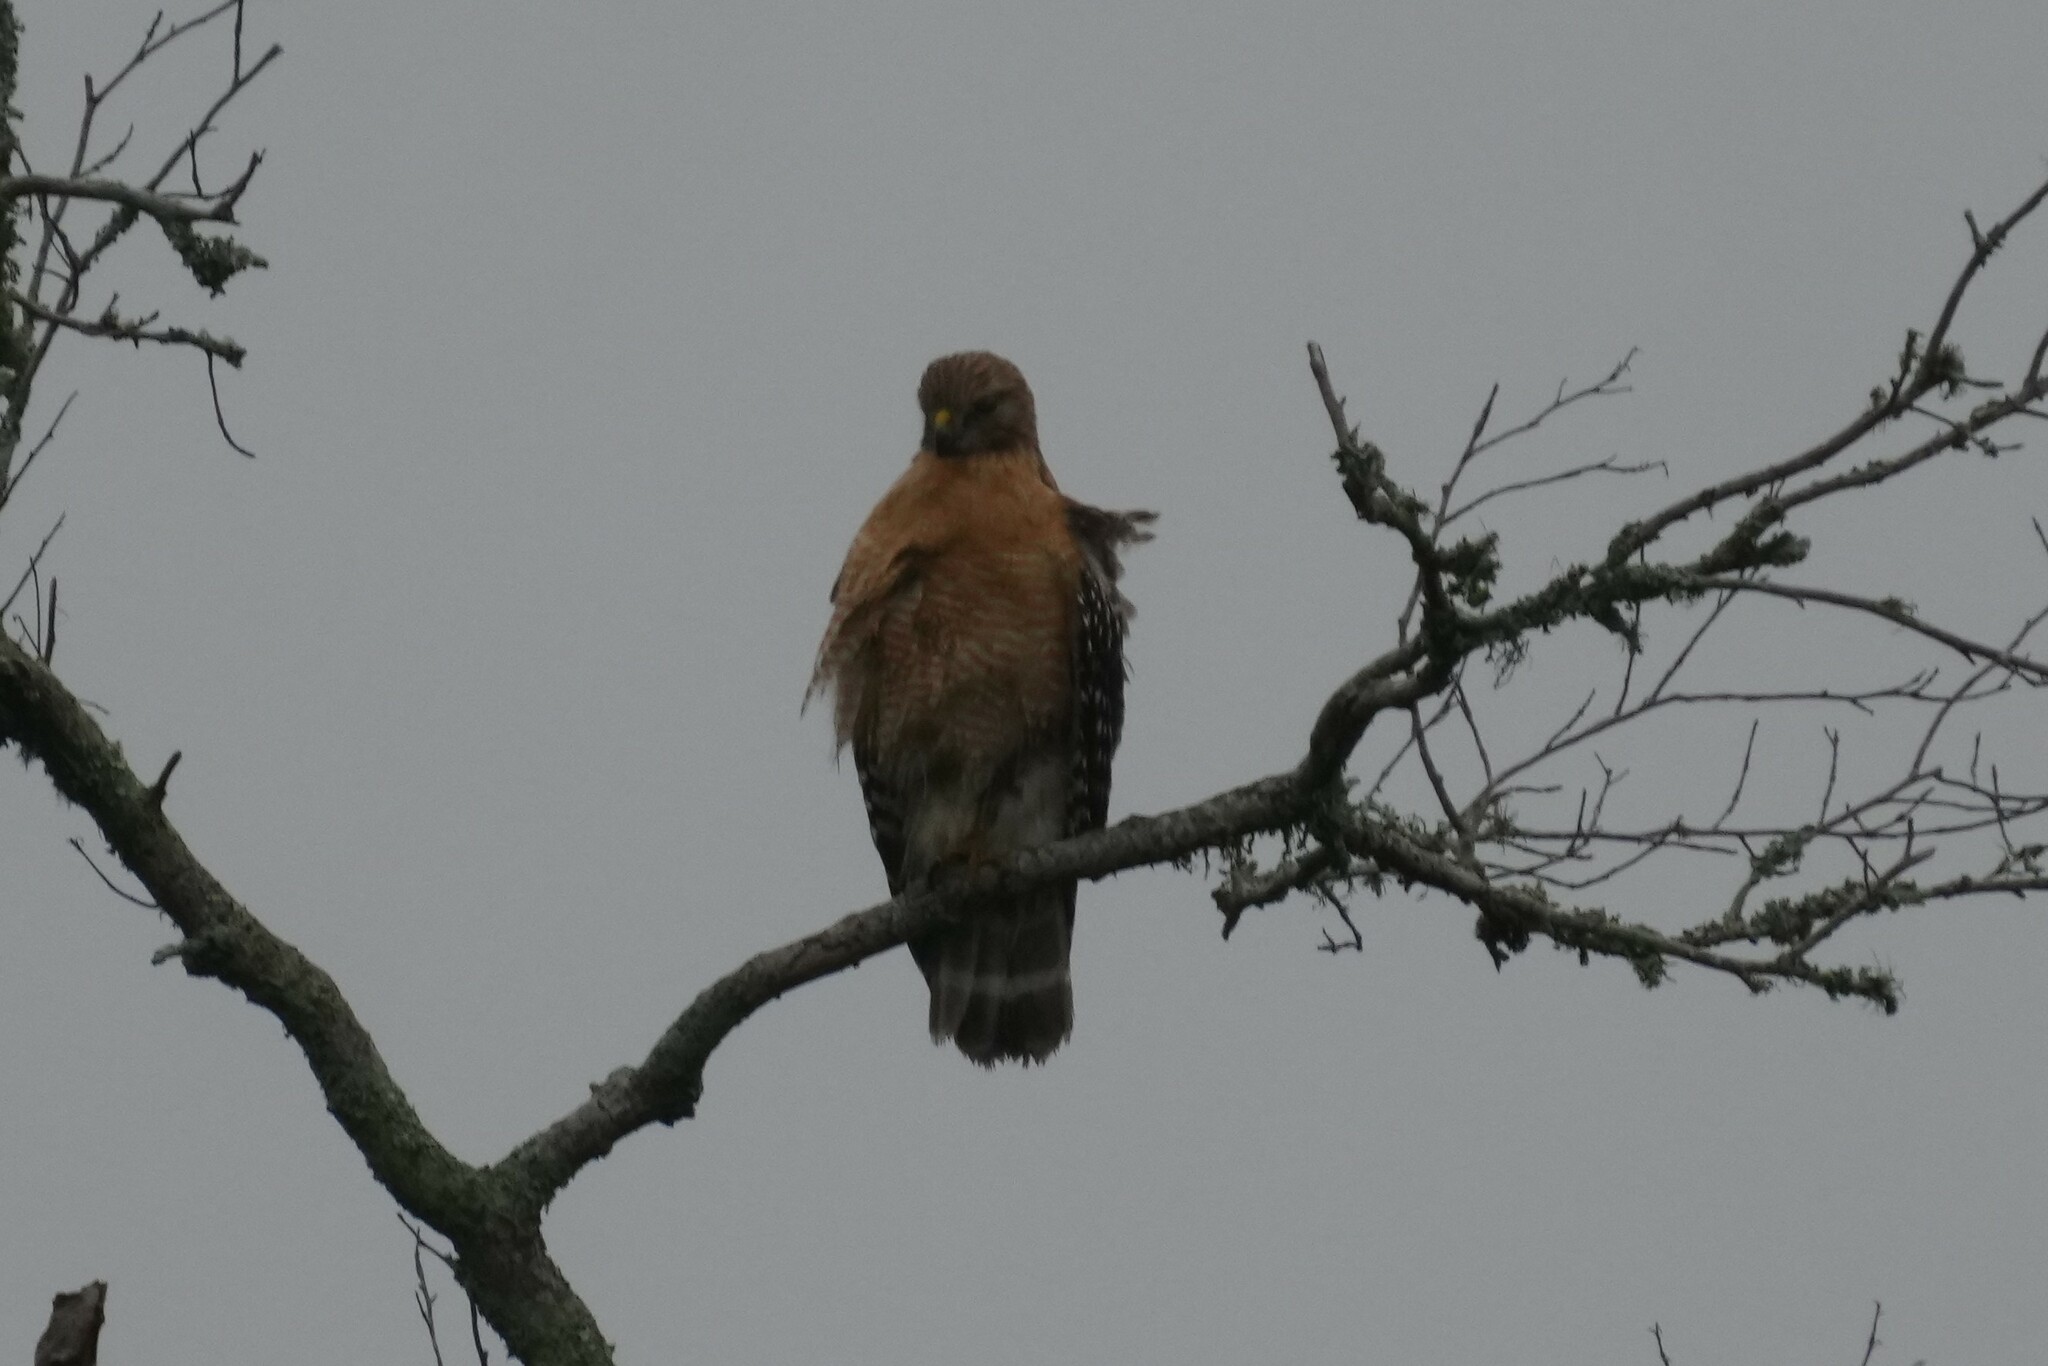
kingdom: Animalia
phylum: Chordata
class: Aves
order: Accipitriformes
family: Accipitridae
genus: Buteo
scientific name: Buteo lineatus
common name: Red-shouldered hawk
